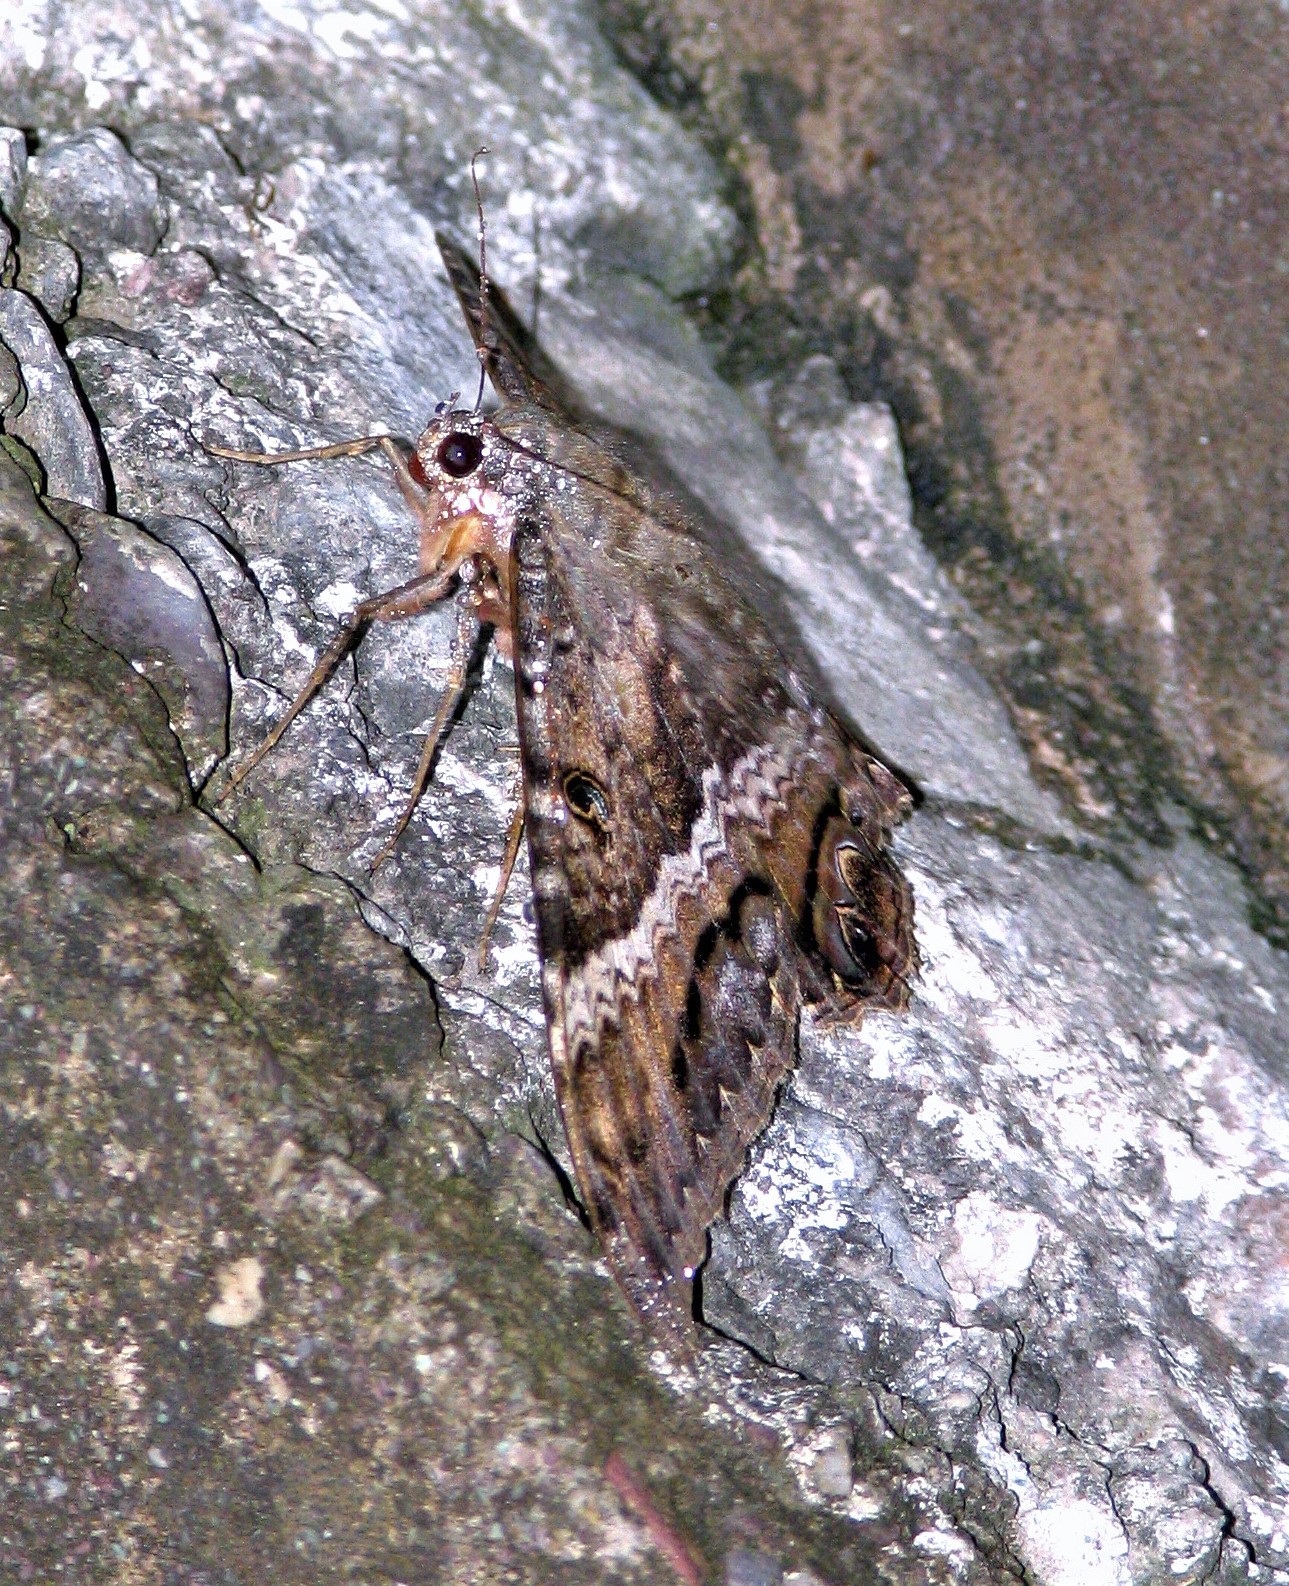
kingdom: Animalia
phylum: Arthropoda
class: Insecta
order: Lepidoptera
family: Erebidae
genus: Ascalapha
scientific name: Ascalapha odorata
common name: Black witch
